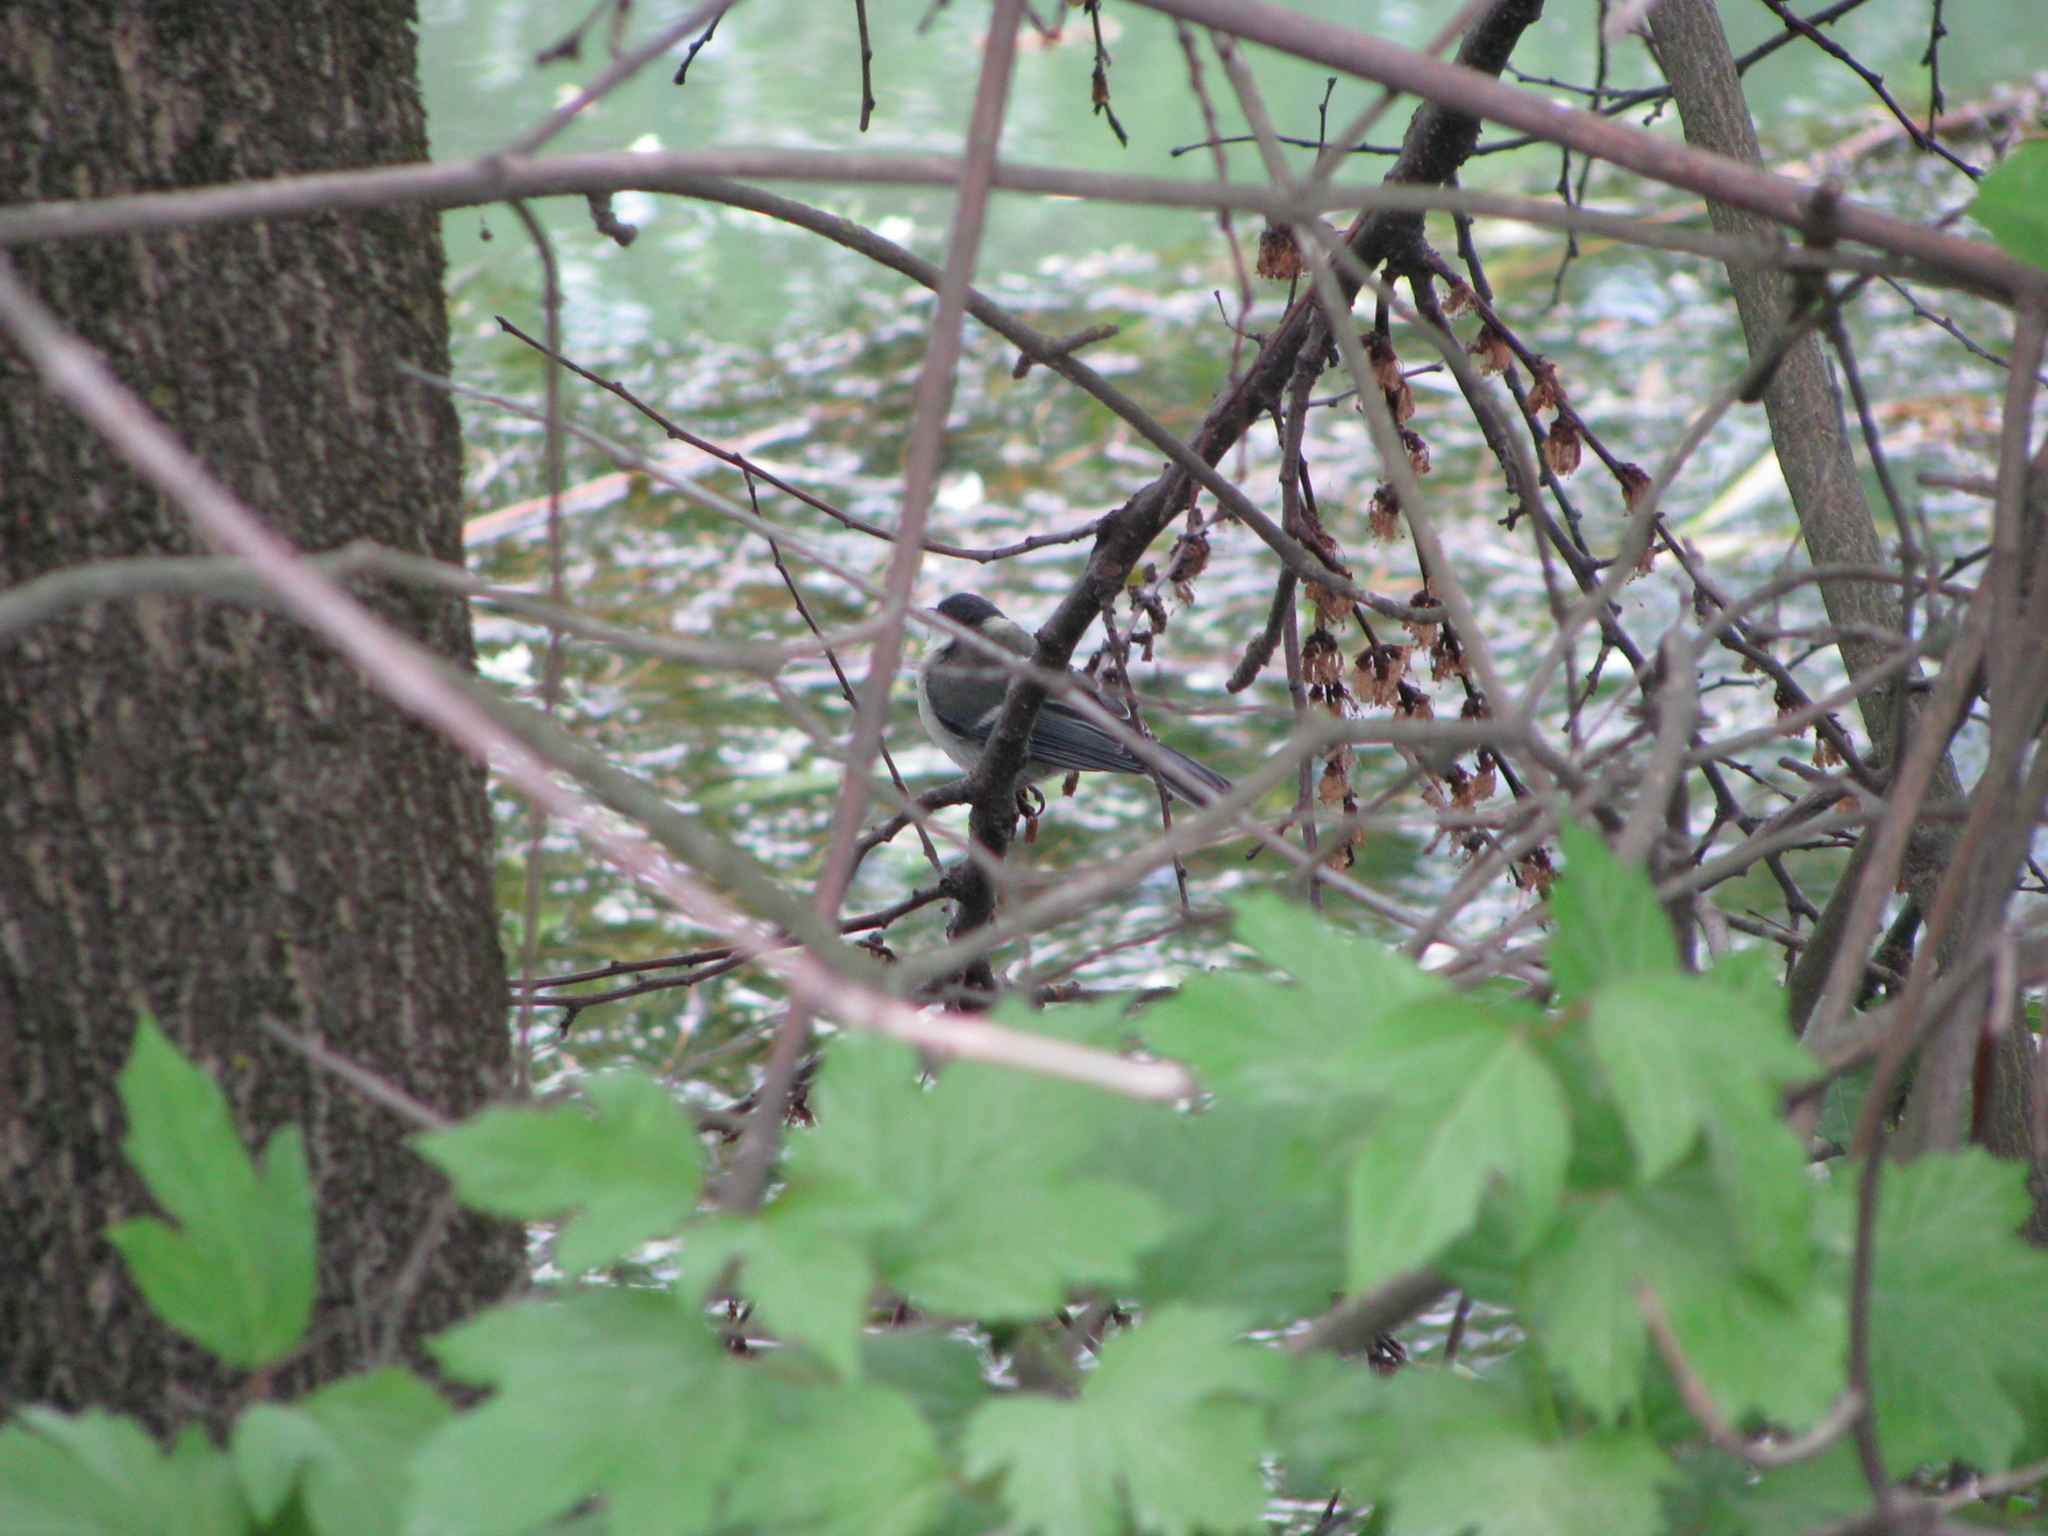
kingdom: Animalia
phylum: Chordata
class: Aves
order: Passeriformes
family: Paridae
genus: Parus
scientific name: Parus major
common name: Great tit
